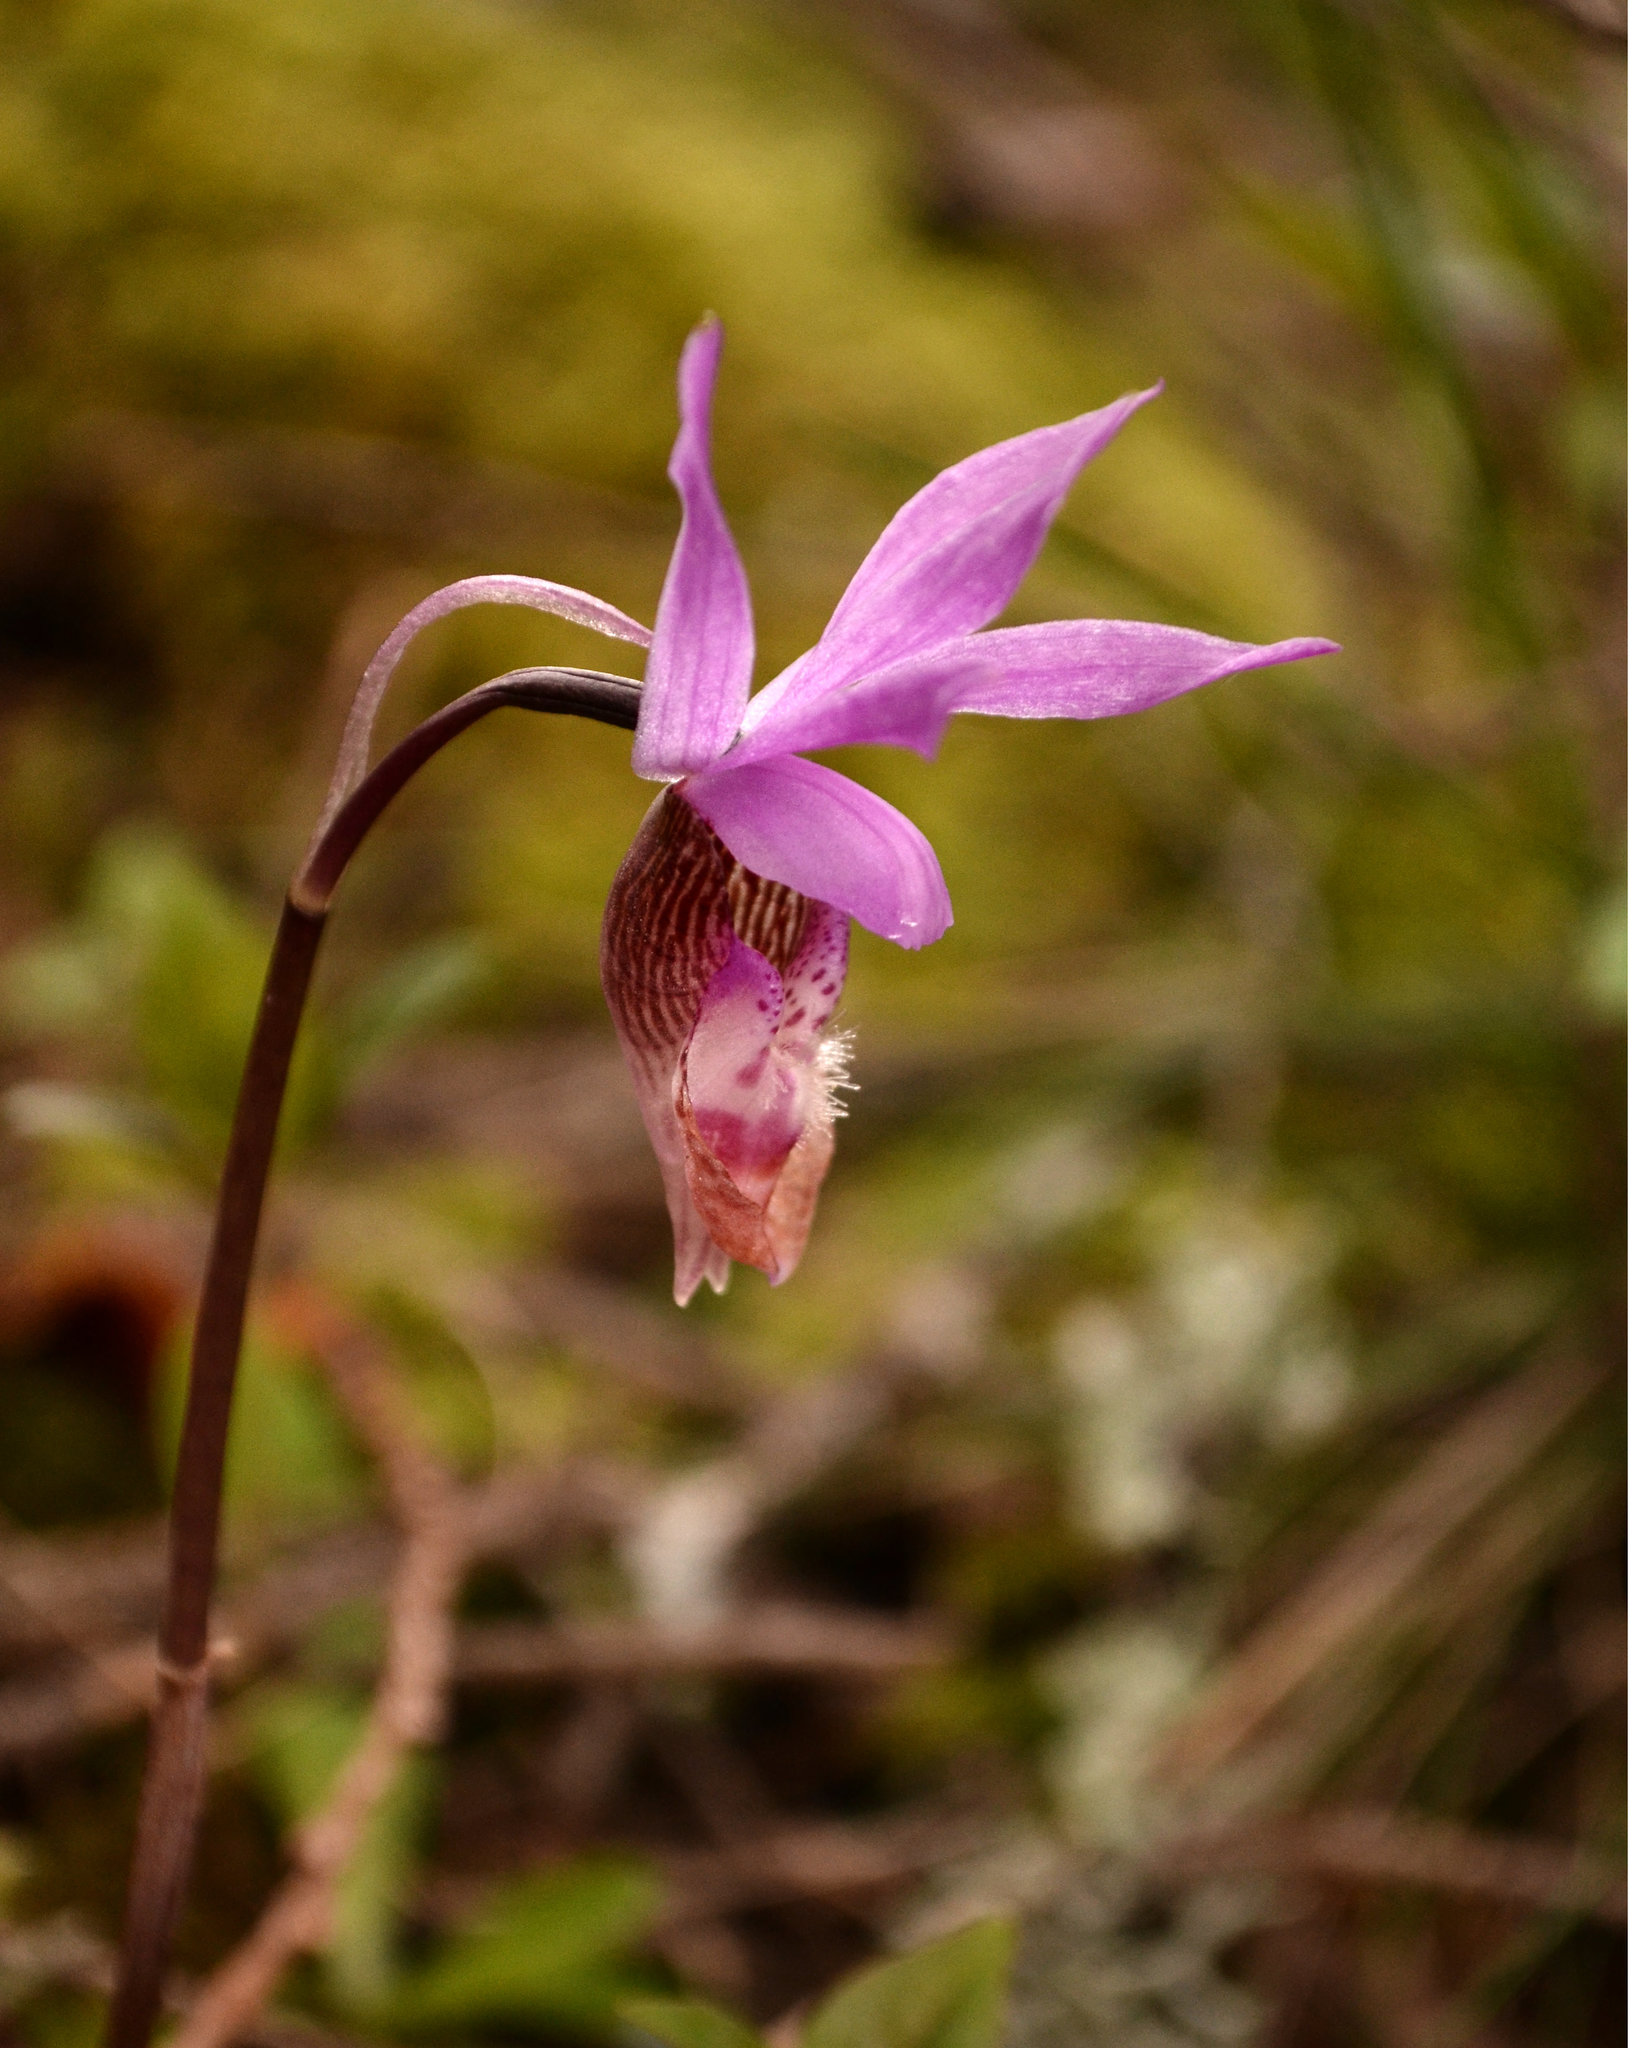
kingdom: Plantae
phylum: Tracheophyta
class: Liliopsida
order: Asparagales
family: Orchidaceae
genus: Calypso
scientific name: Calypso bulbosa
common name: Calypso
